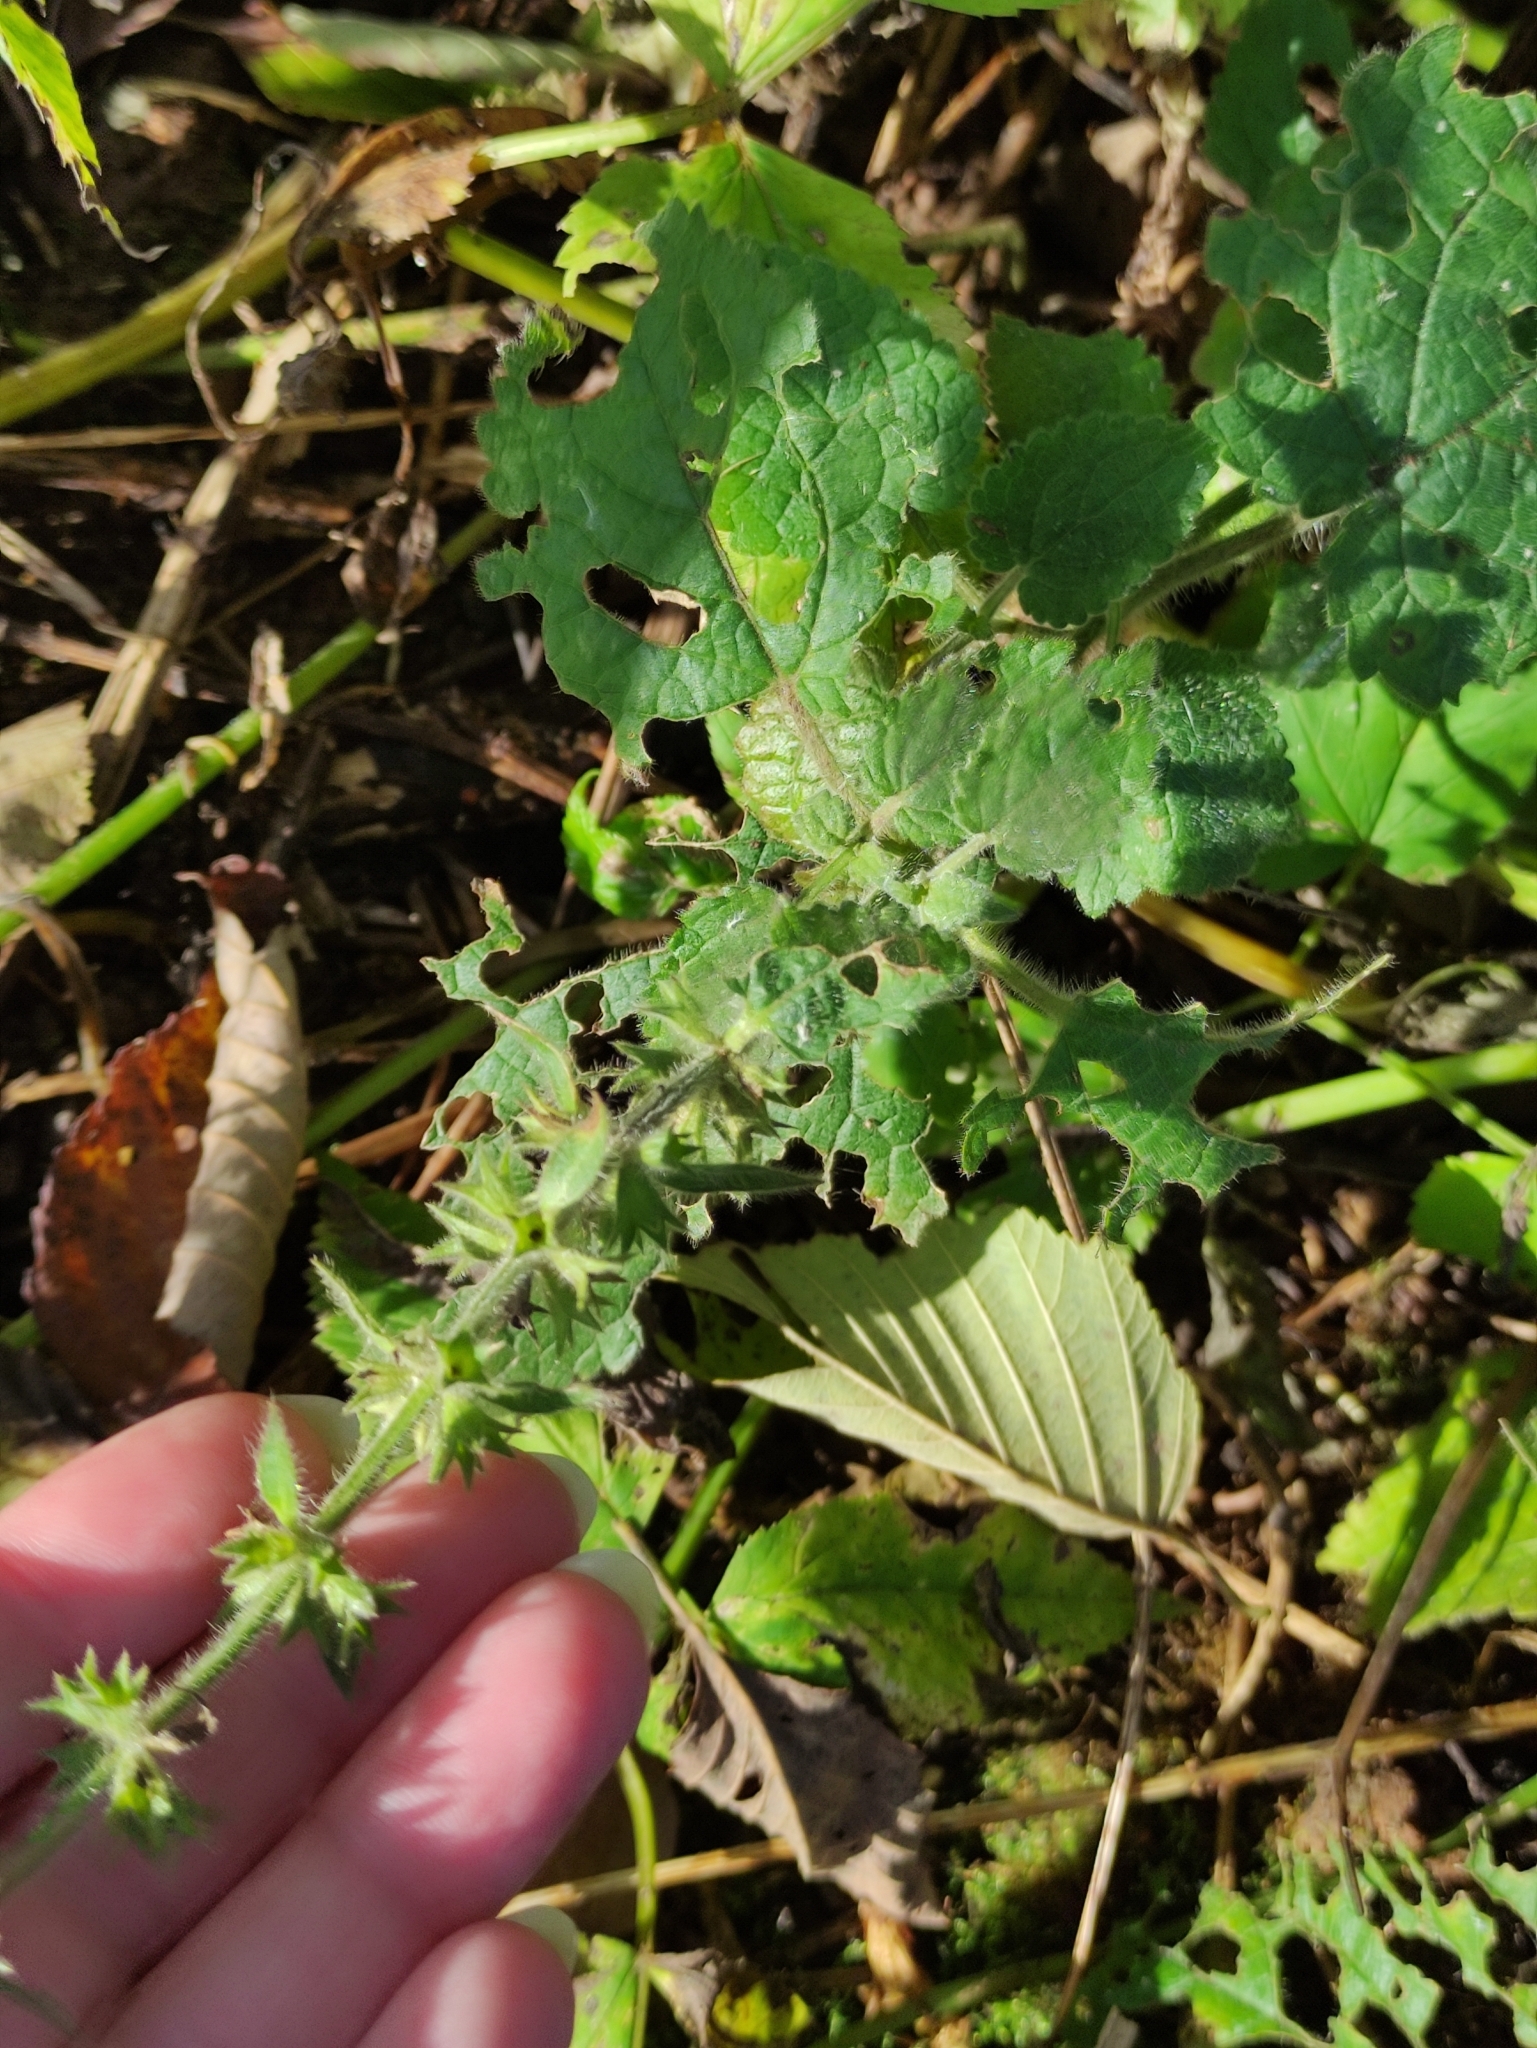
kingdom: Plantae
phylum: Tracheophyta
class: Magnoliopsida
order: Lamiales
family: Lamiaceae
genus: Stachys
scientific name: Stachys sylvatica
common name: Hedge woundwort
